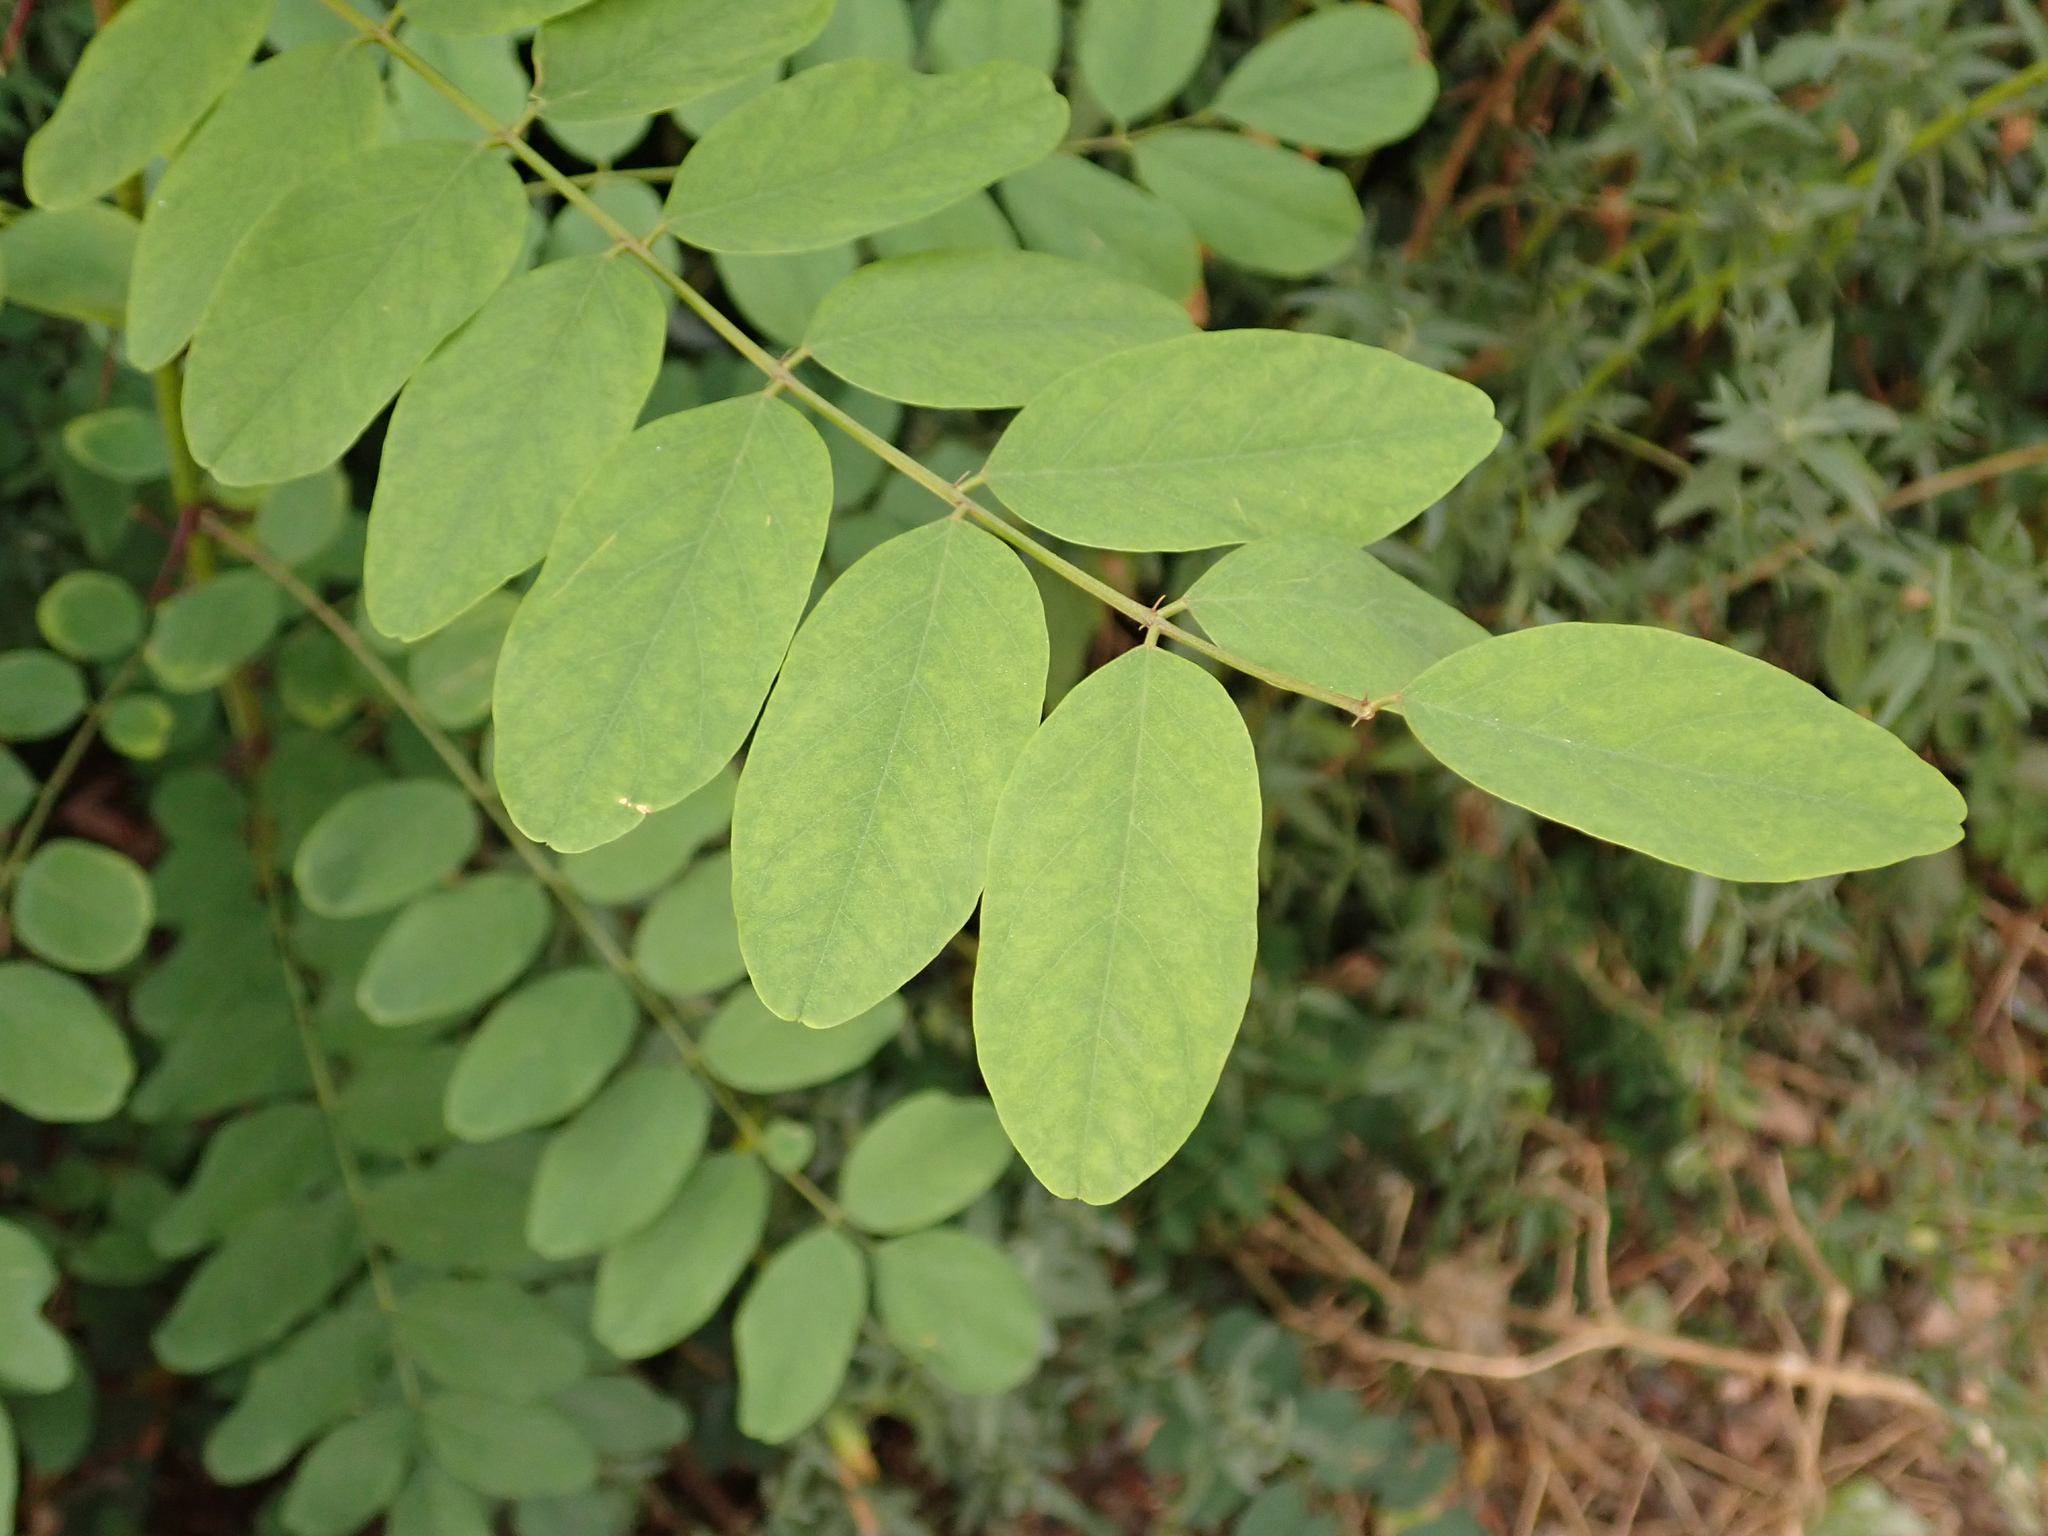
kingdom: Plantae
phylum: Tracheophyta
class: Magnoliopsida
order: Fabales
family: Fabaceae
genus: Robinia
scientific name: Robinia pseudoacacia
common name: Black locust
